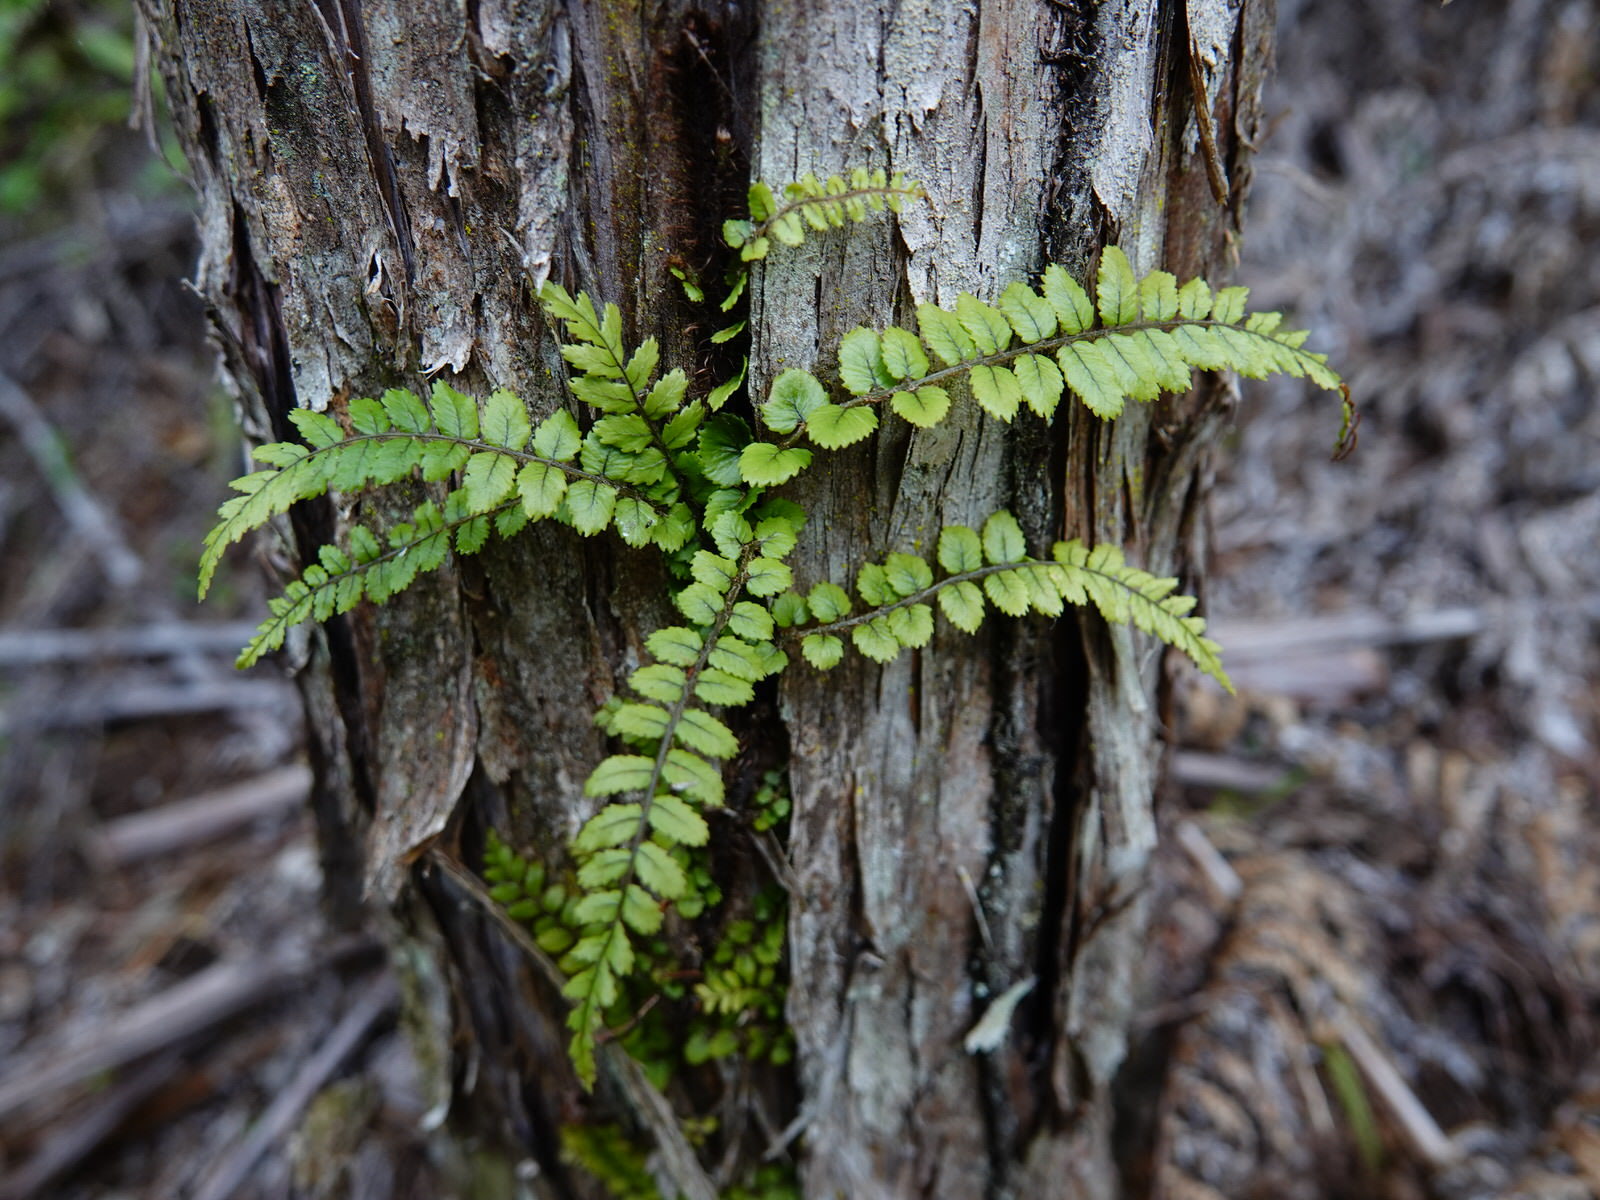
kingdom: Plantae
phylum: Tracheophyta
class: Polypodiopsida
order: Polypodiales
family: Blechnaceae
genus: Icarus
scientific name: Icarus filiformis
